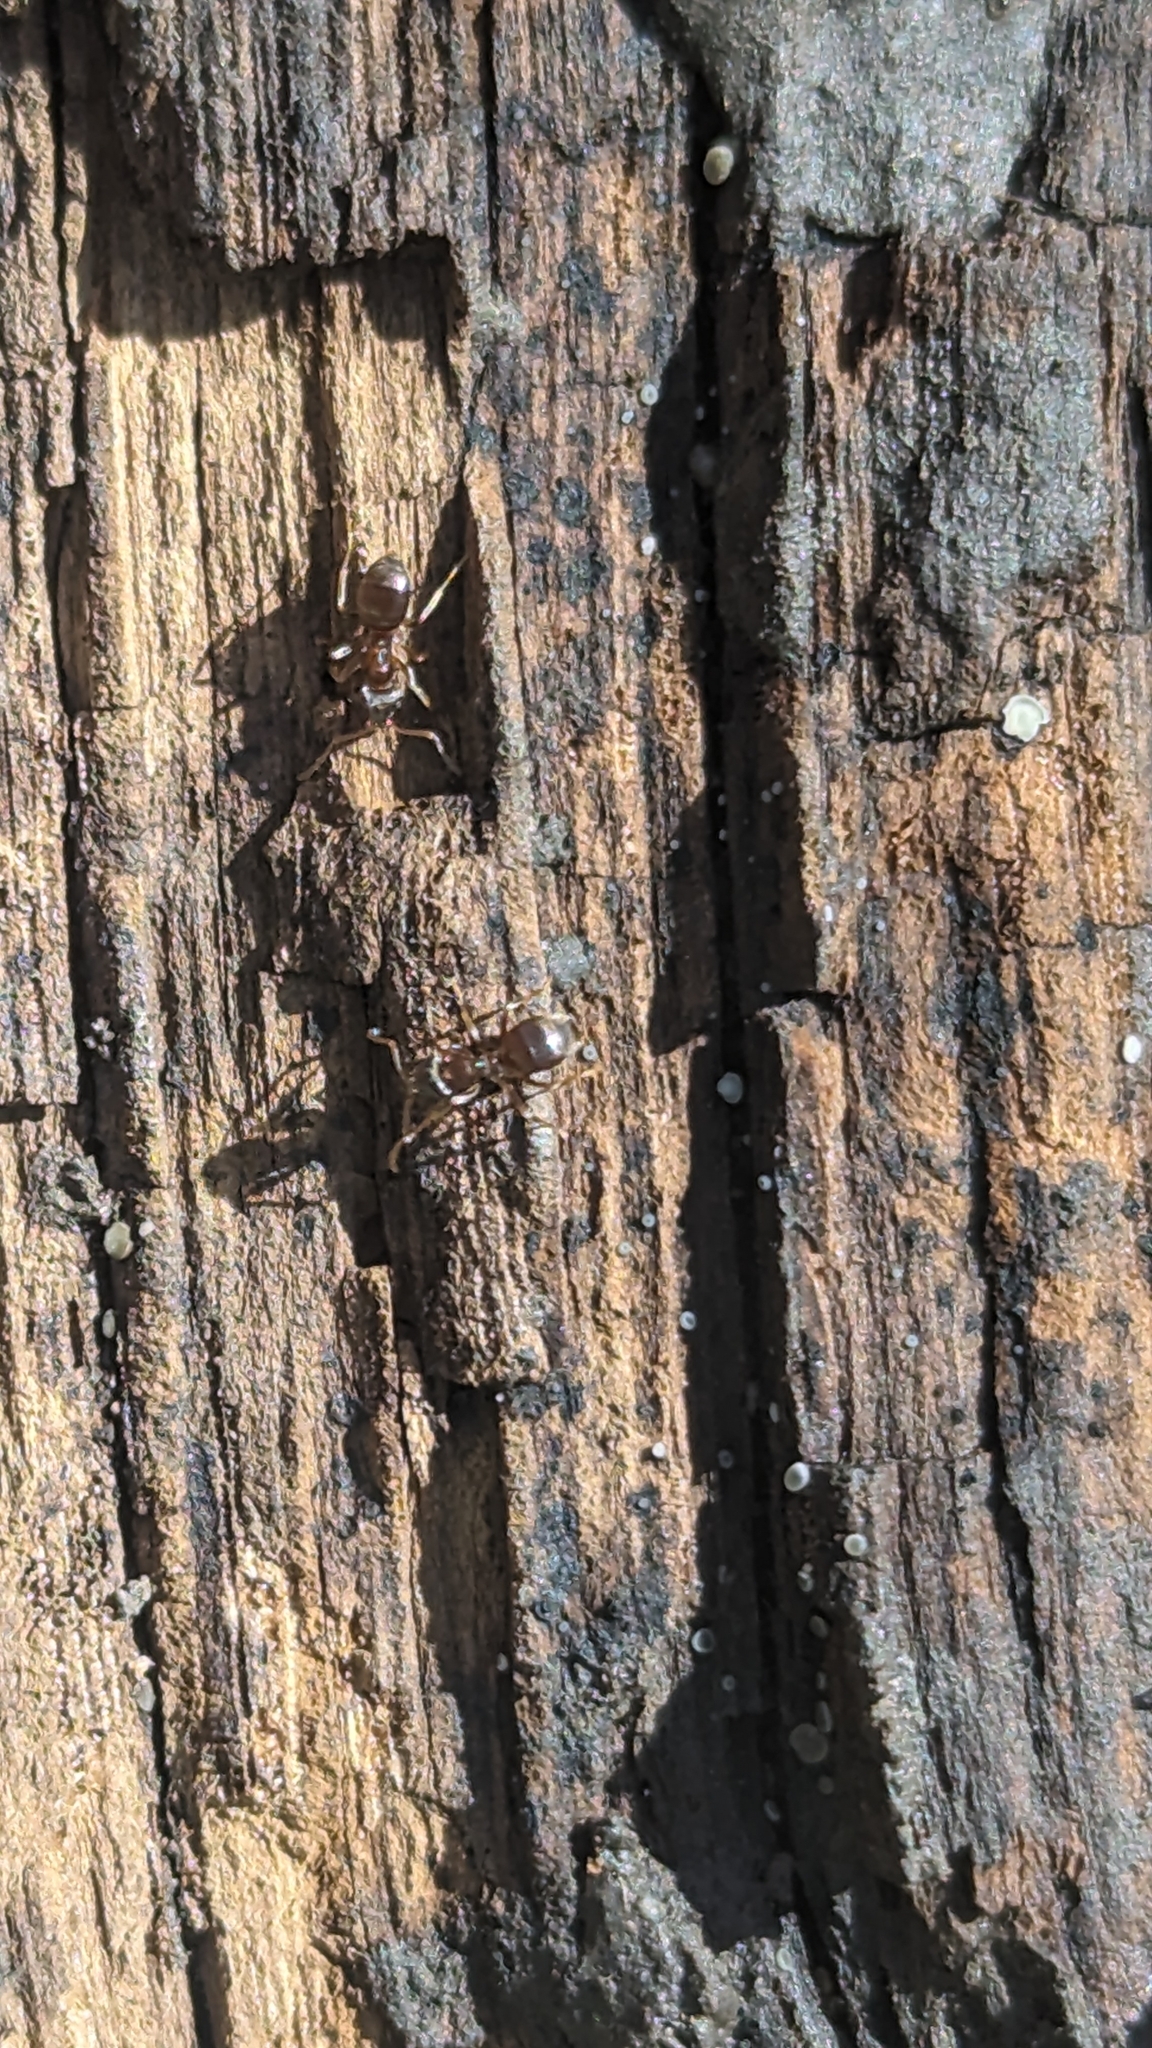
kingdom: Animalia
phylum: Arthropoda
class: Insecta
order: Hymenoptera
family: Formicidae
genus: Lasius
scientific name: Lasius americanus
